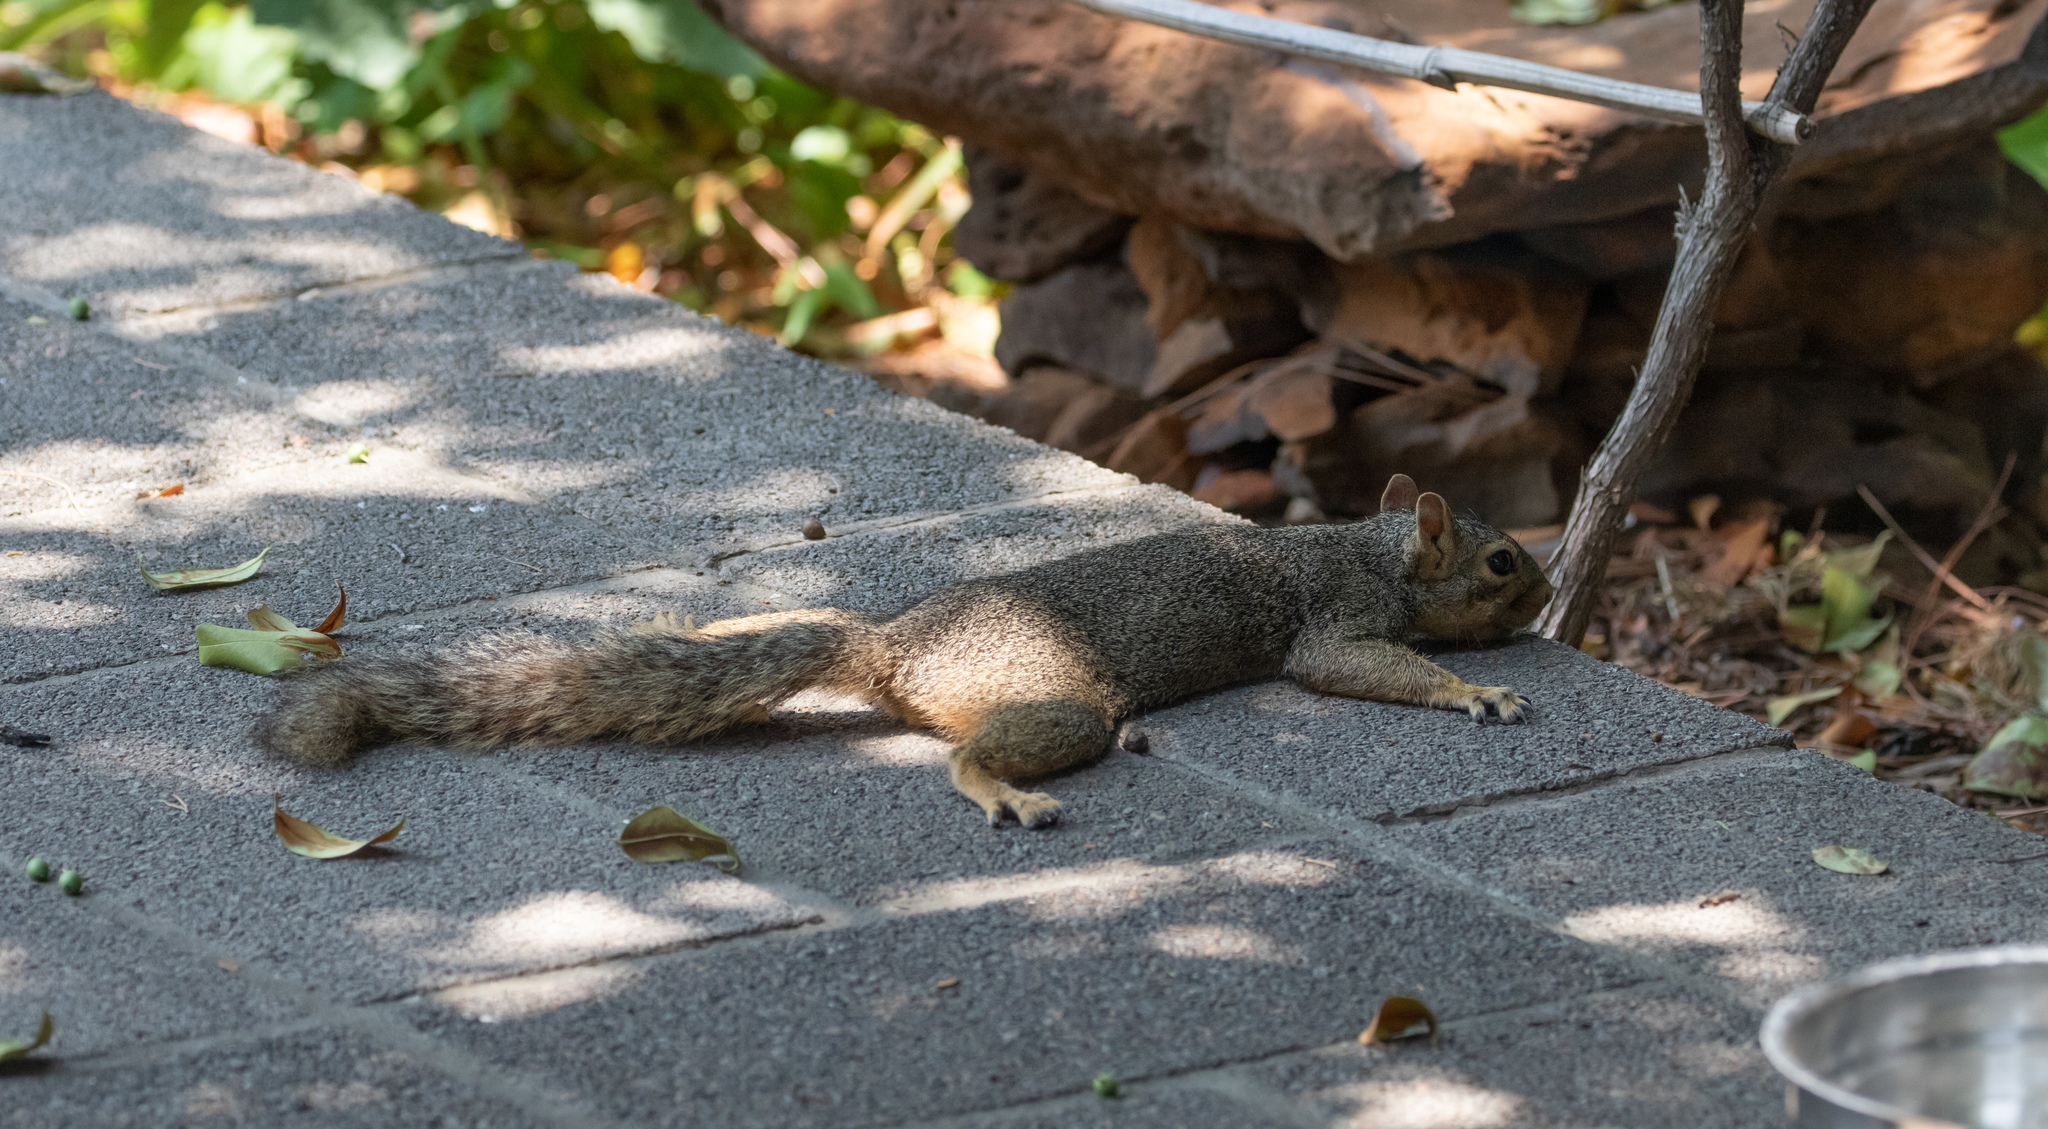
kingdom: Animalia
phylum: Chordata
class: Mammalia
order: Rodentia
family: Sciuridae
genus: Sciurus
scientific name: Sciurus niger
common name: Fox squirrel
